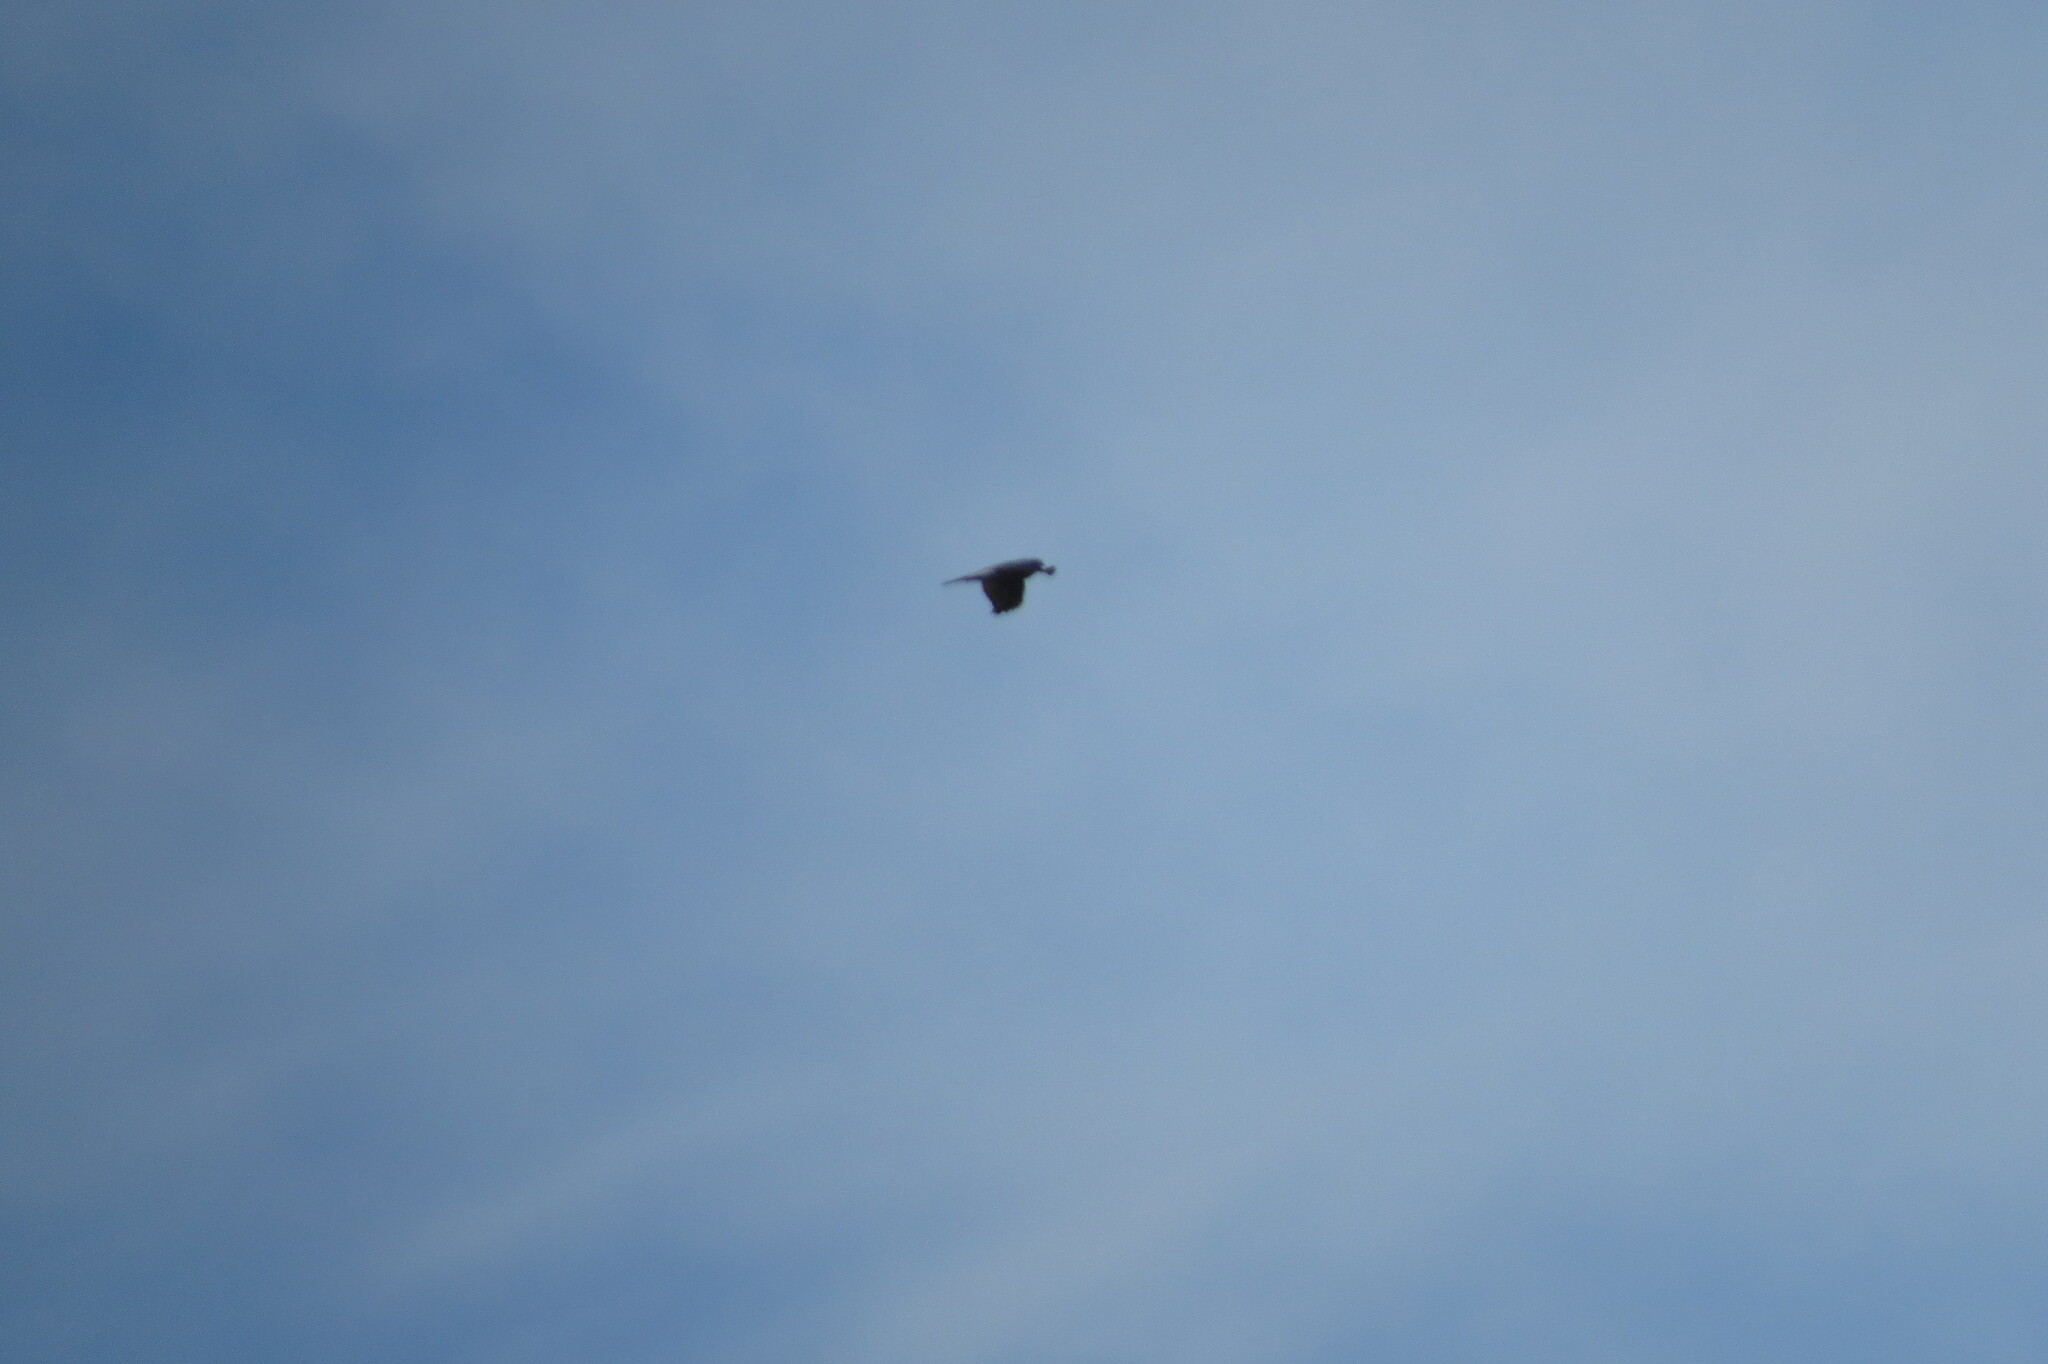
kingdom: Animalia
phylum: Chordata
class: Aves
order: Accipitriformes
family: Accipitridae
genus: Accipiter
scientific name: Accipiter nisus
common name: Eurasian sparrowhawk
